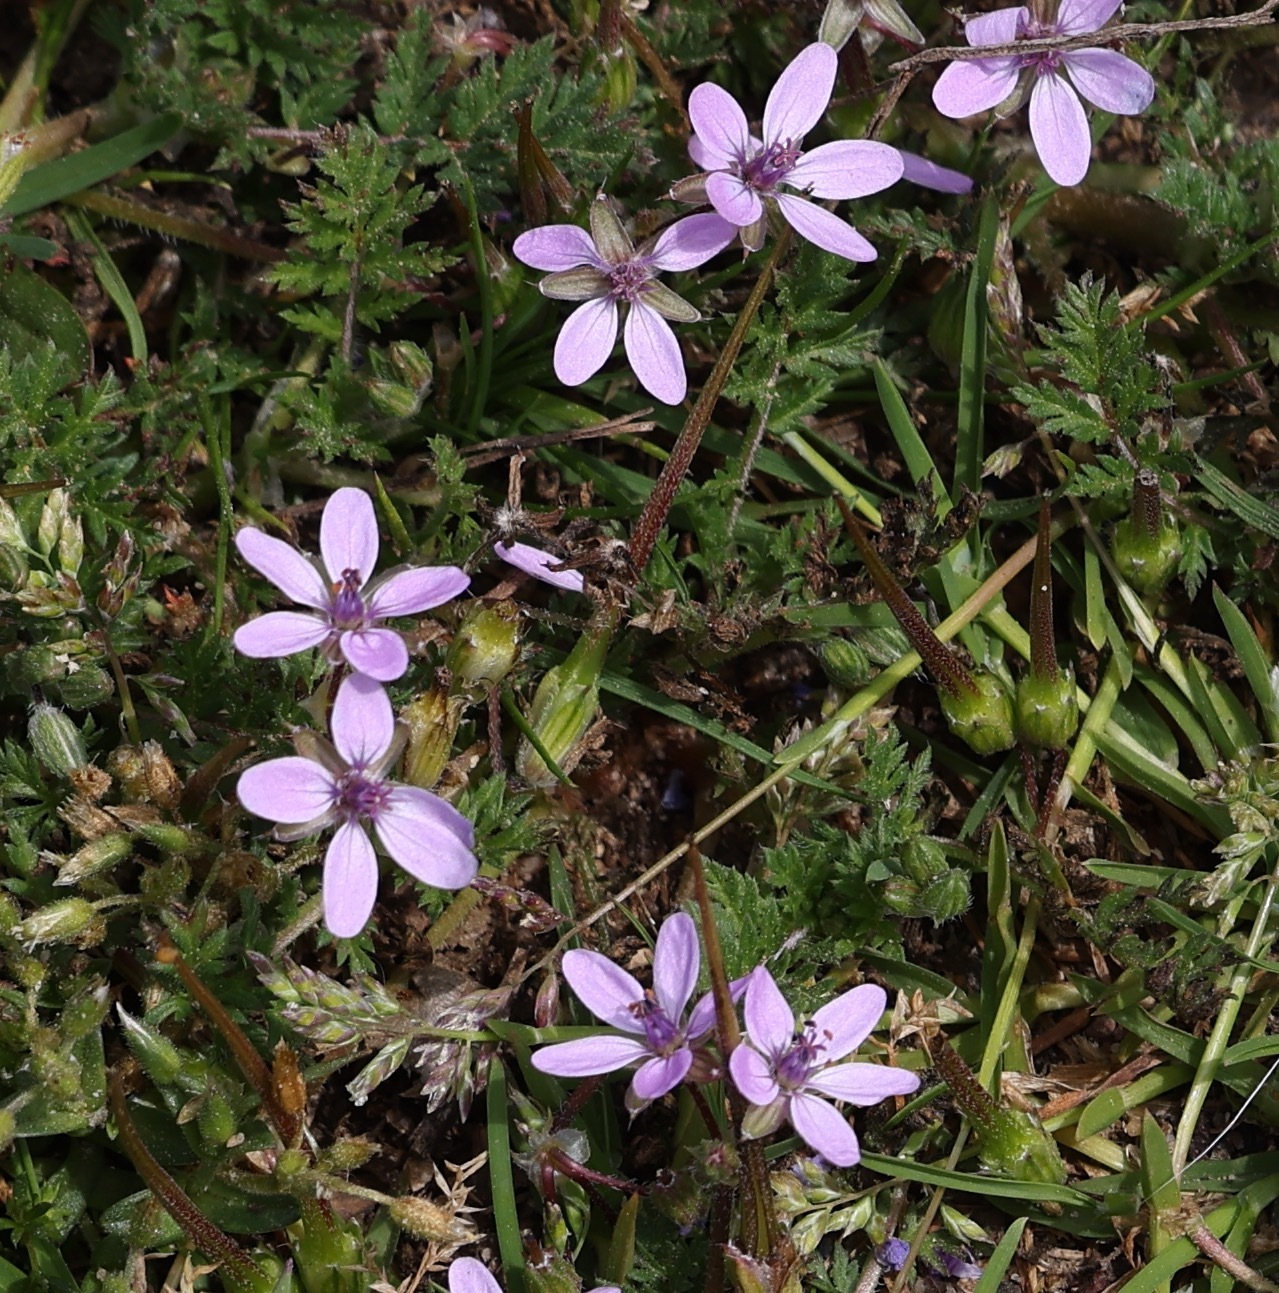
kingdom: Plantae
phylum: Tracheophyta
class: Magnoliopsida
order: Geraniales
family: Geraniaceae
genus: Erodium
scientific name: Erodium cicutarium
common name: Common stork's-bill
